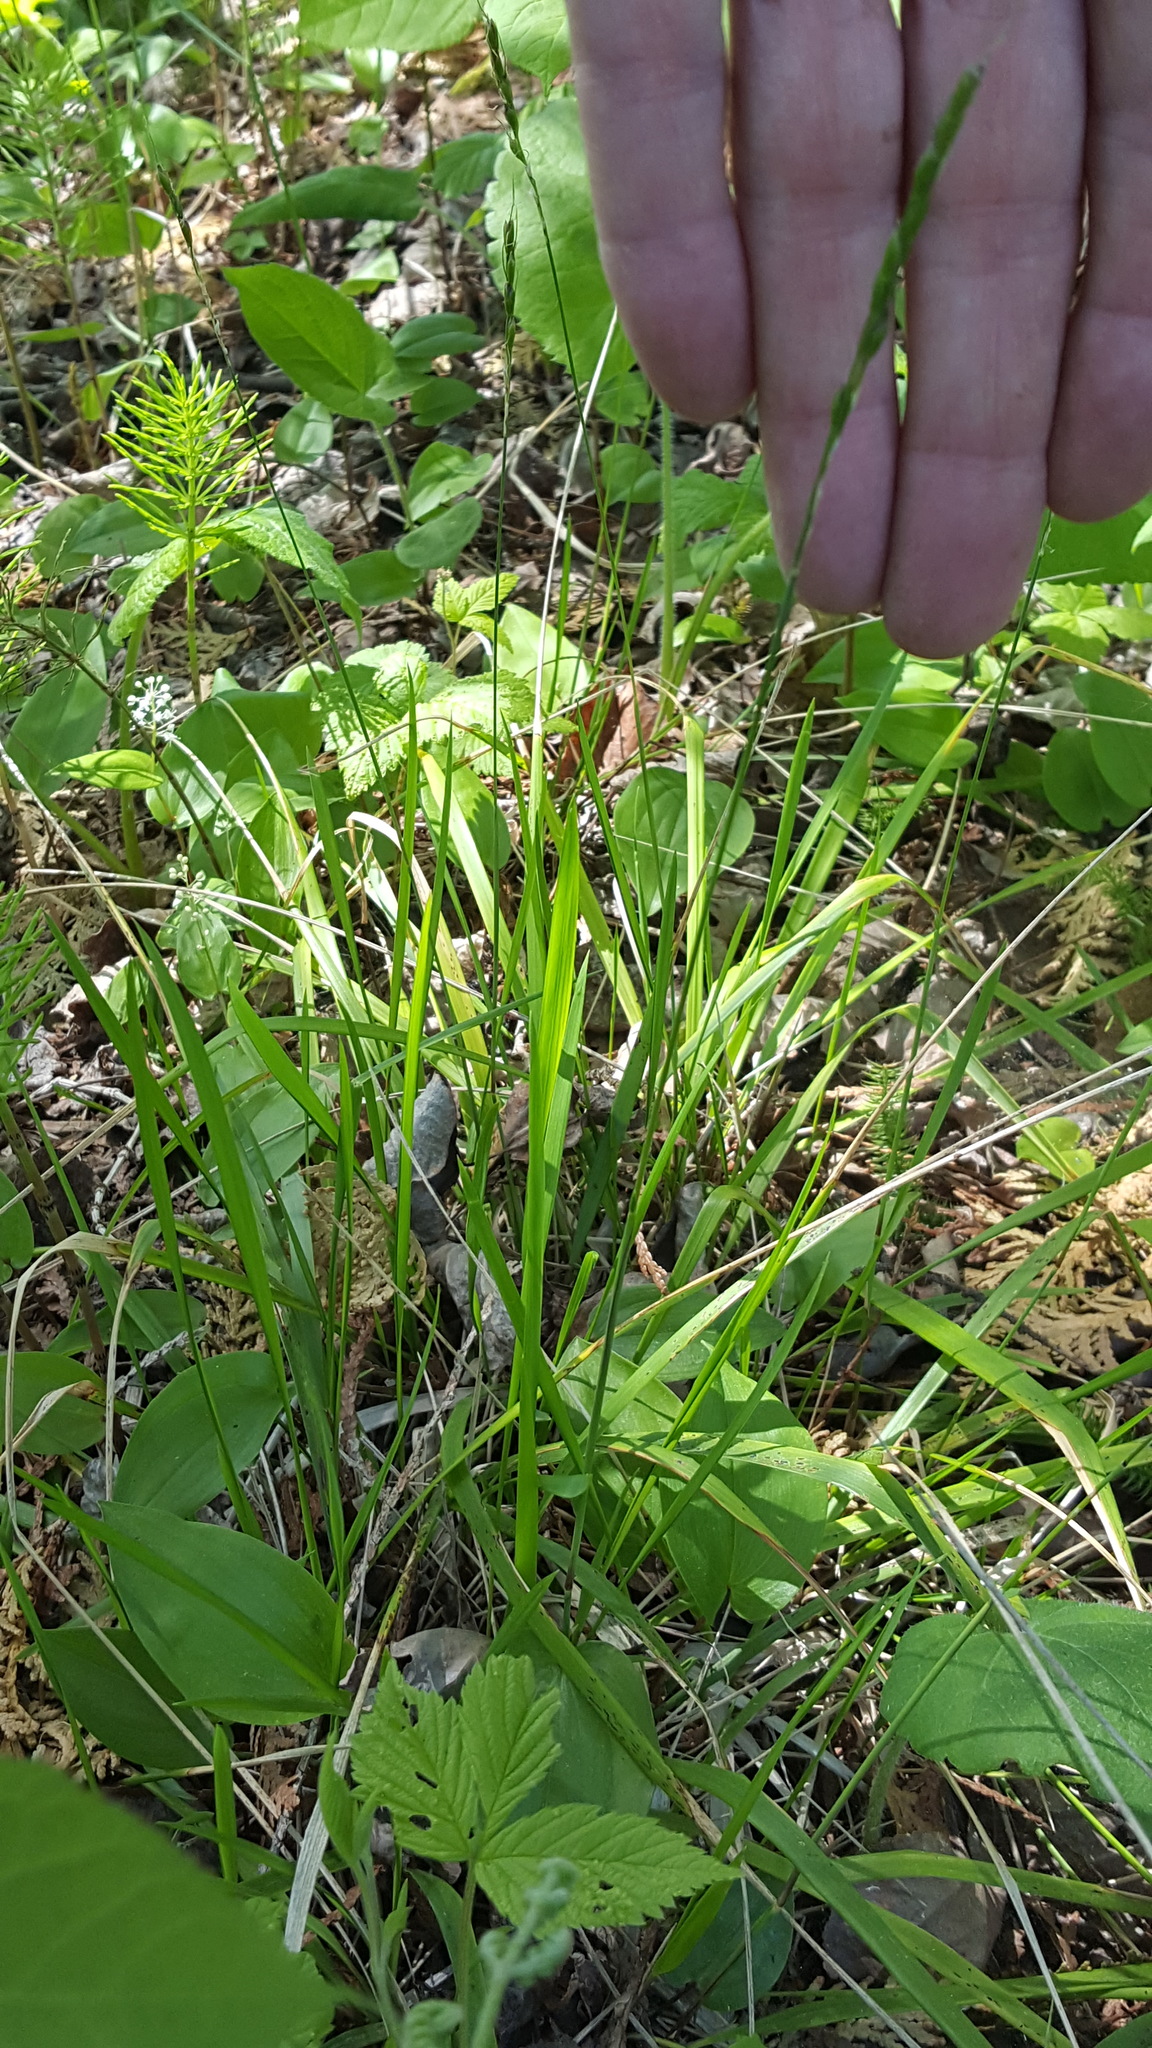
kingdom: Plantae
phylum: Tracheophyta
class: Liliopsida
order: Poales
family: Poaceae
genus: Oryzopsis
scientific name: Oryzopsis asperifolia
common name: Rough-leaved mountain rice
